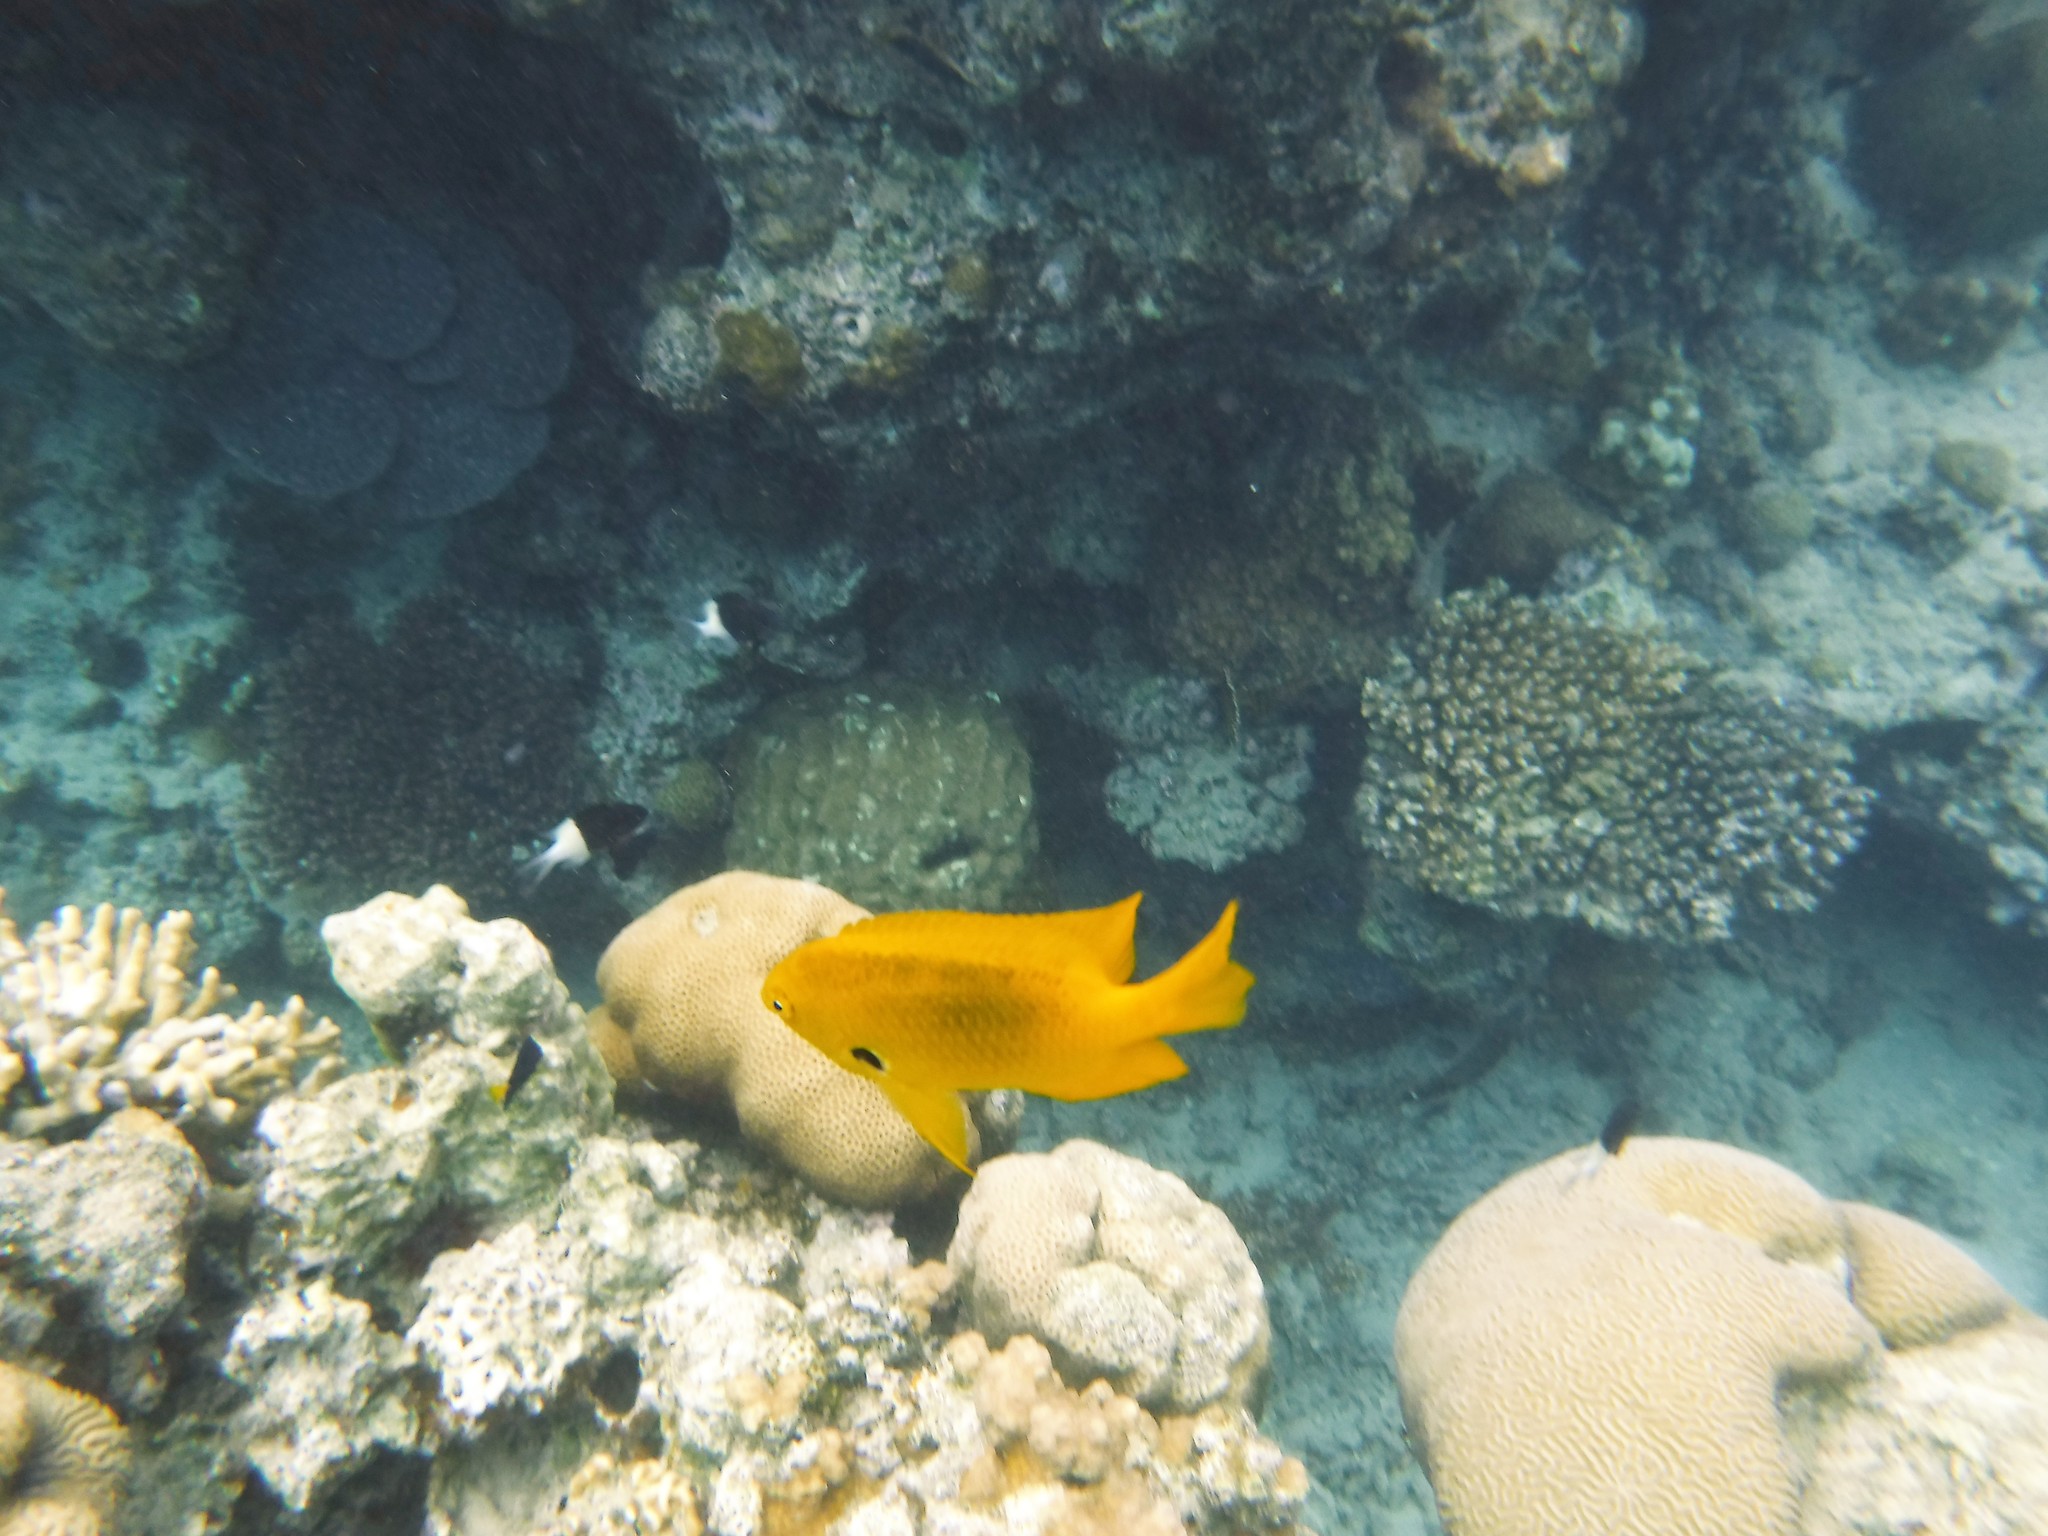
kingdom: Animalia
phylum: Chordata
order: Perciformes
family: Pomacentridae
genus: Pomacentrus
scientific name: Pomacentrus sulfureus
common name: Sulfur damsel
